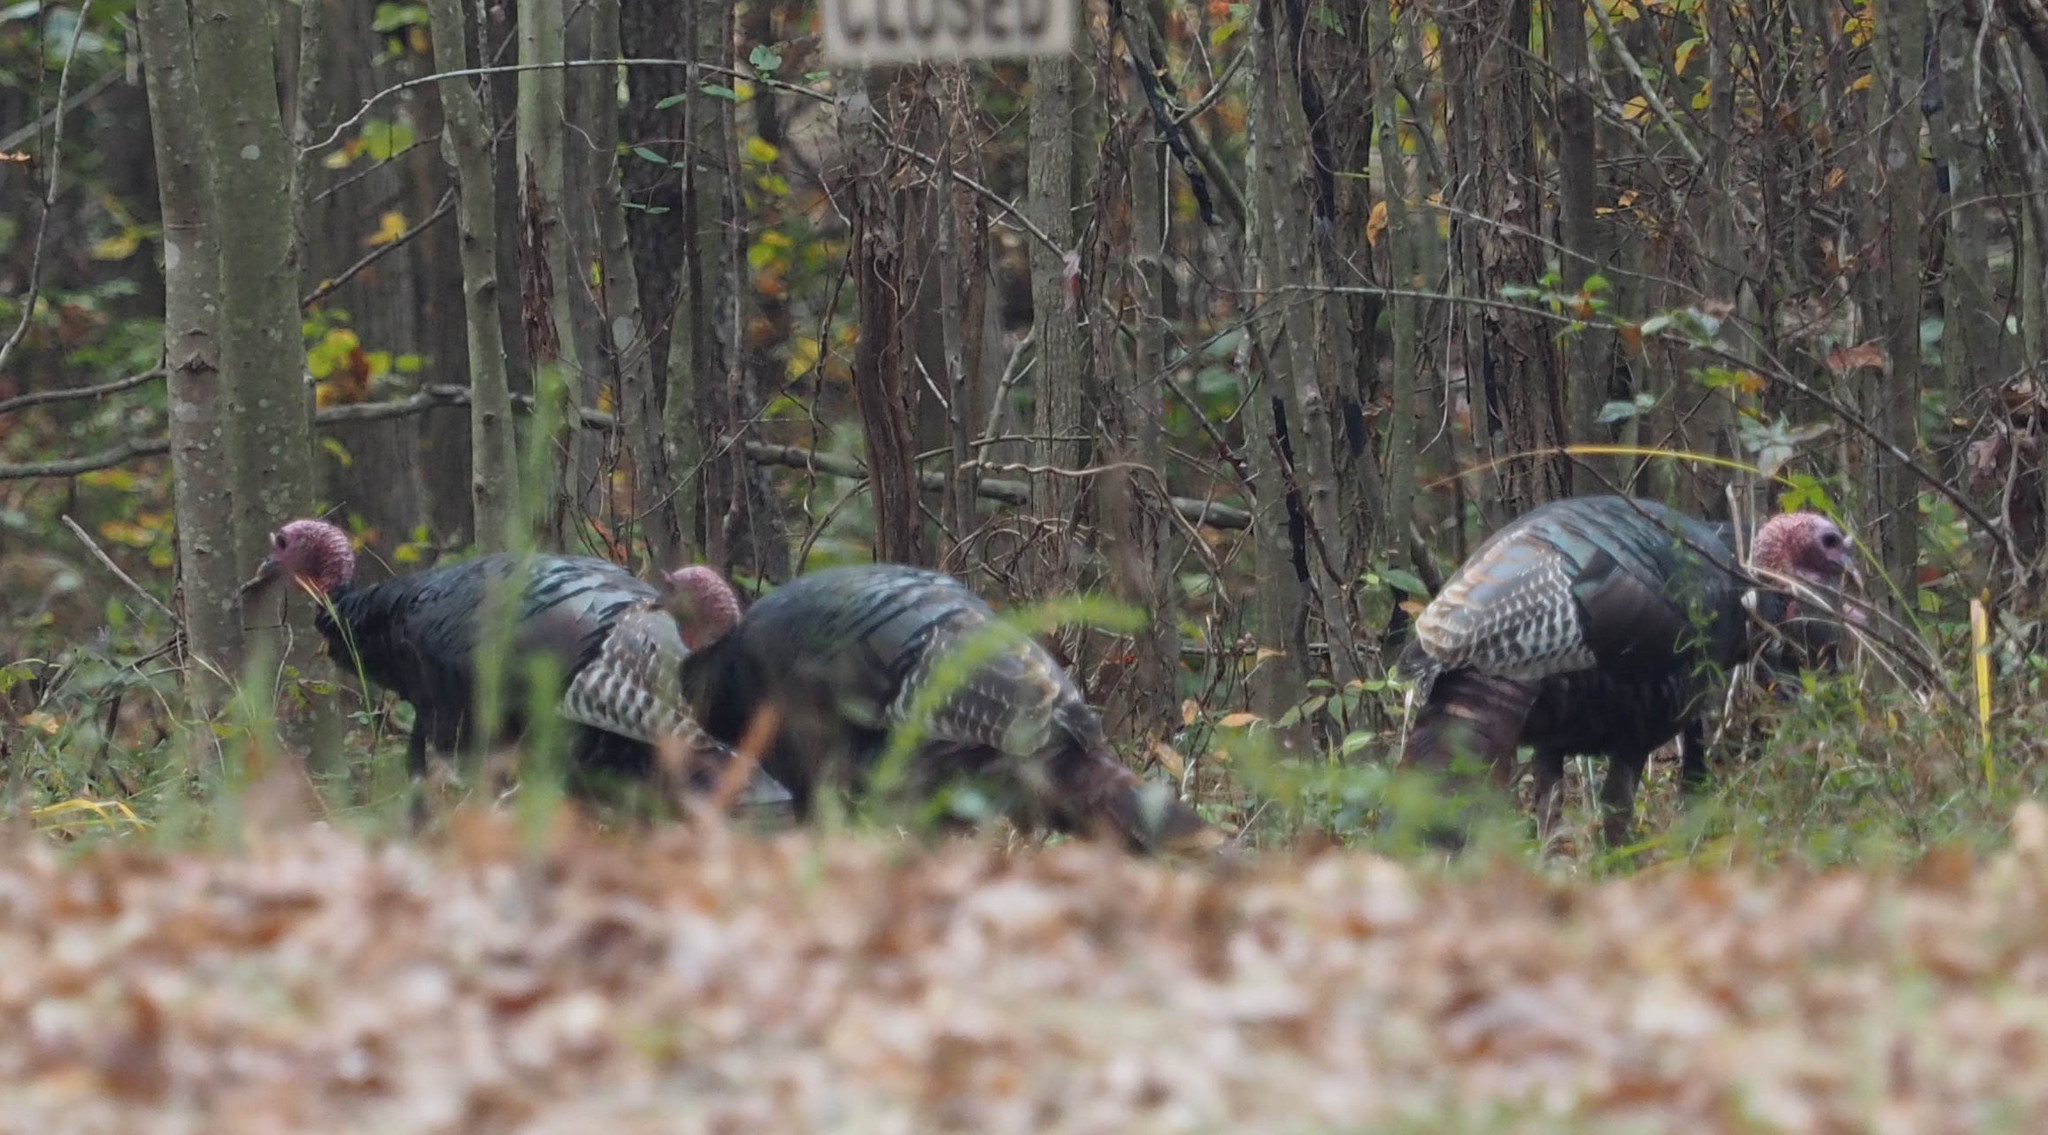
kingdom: Animalia
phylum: Chordata
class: Aves
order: Galliformes
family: Phasianidae
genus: Meleagris
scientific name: Meleagris gallopavo
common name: Wild turkey
